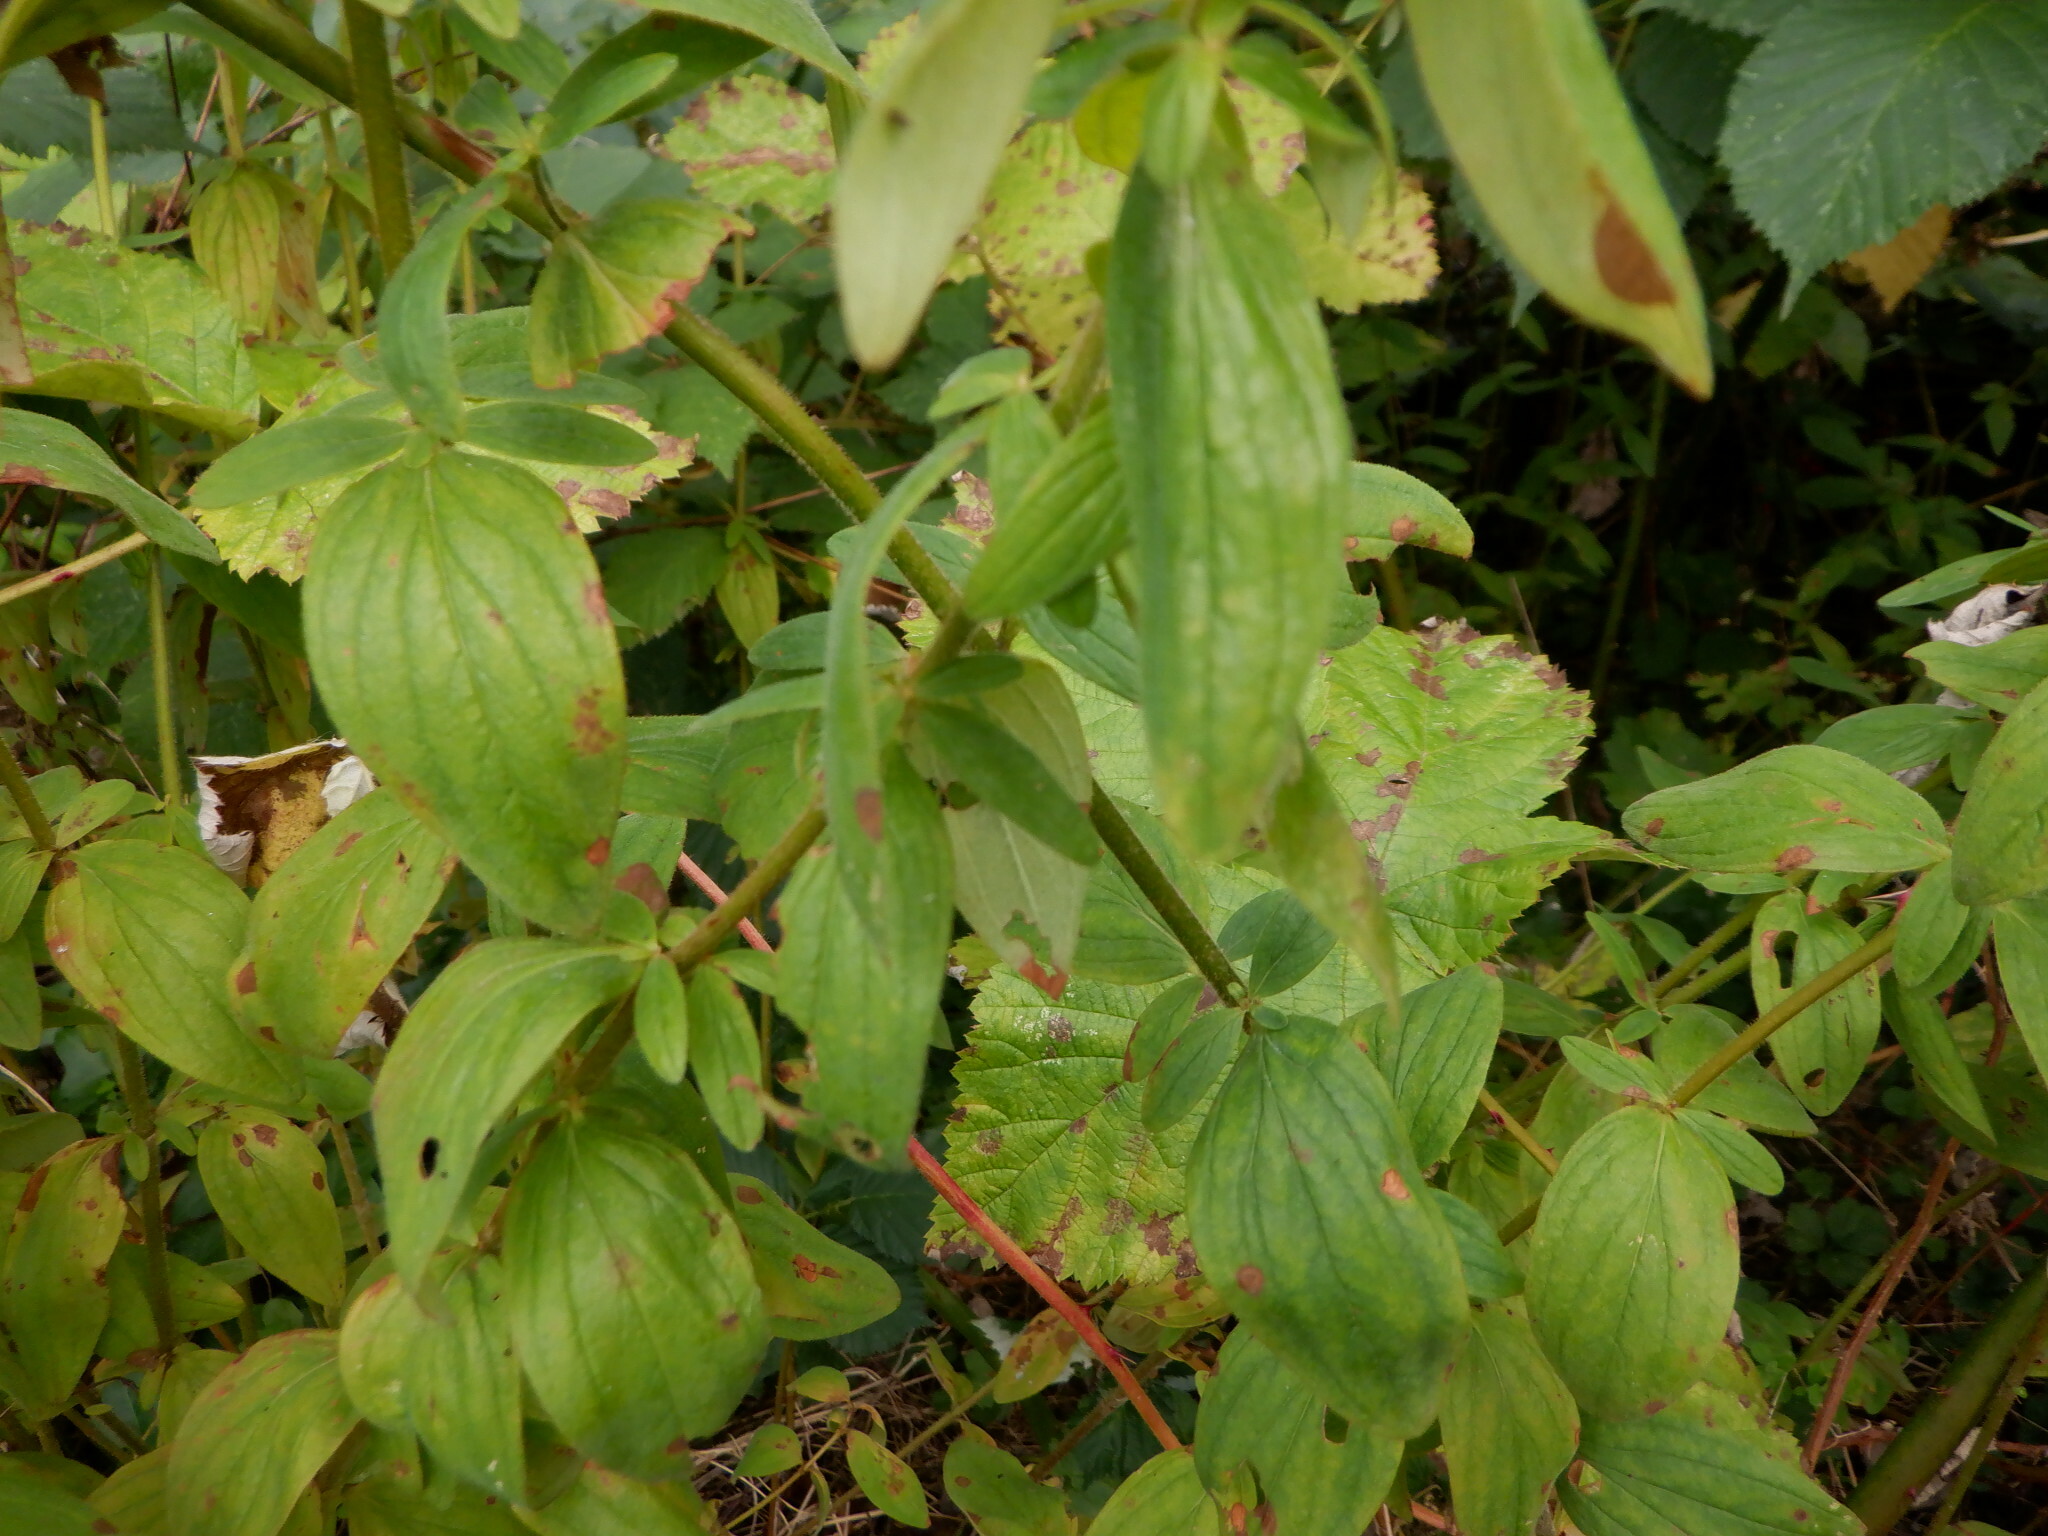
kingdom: Plantae
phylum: Tracheophyta
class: Magnoliopsida
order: Malpighiales
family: Hypericaceae
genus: Hypericum
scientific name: Hypericum hirsutum
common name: Hairy st. john's-wort
